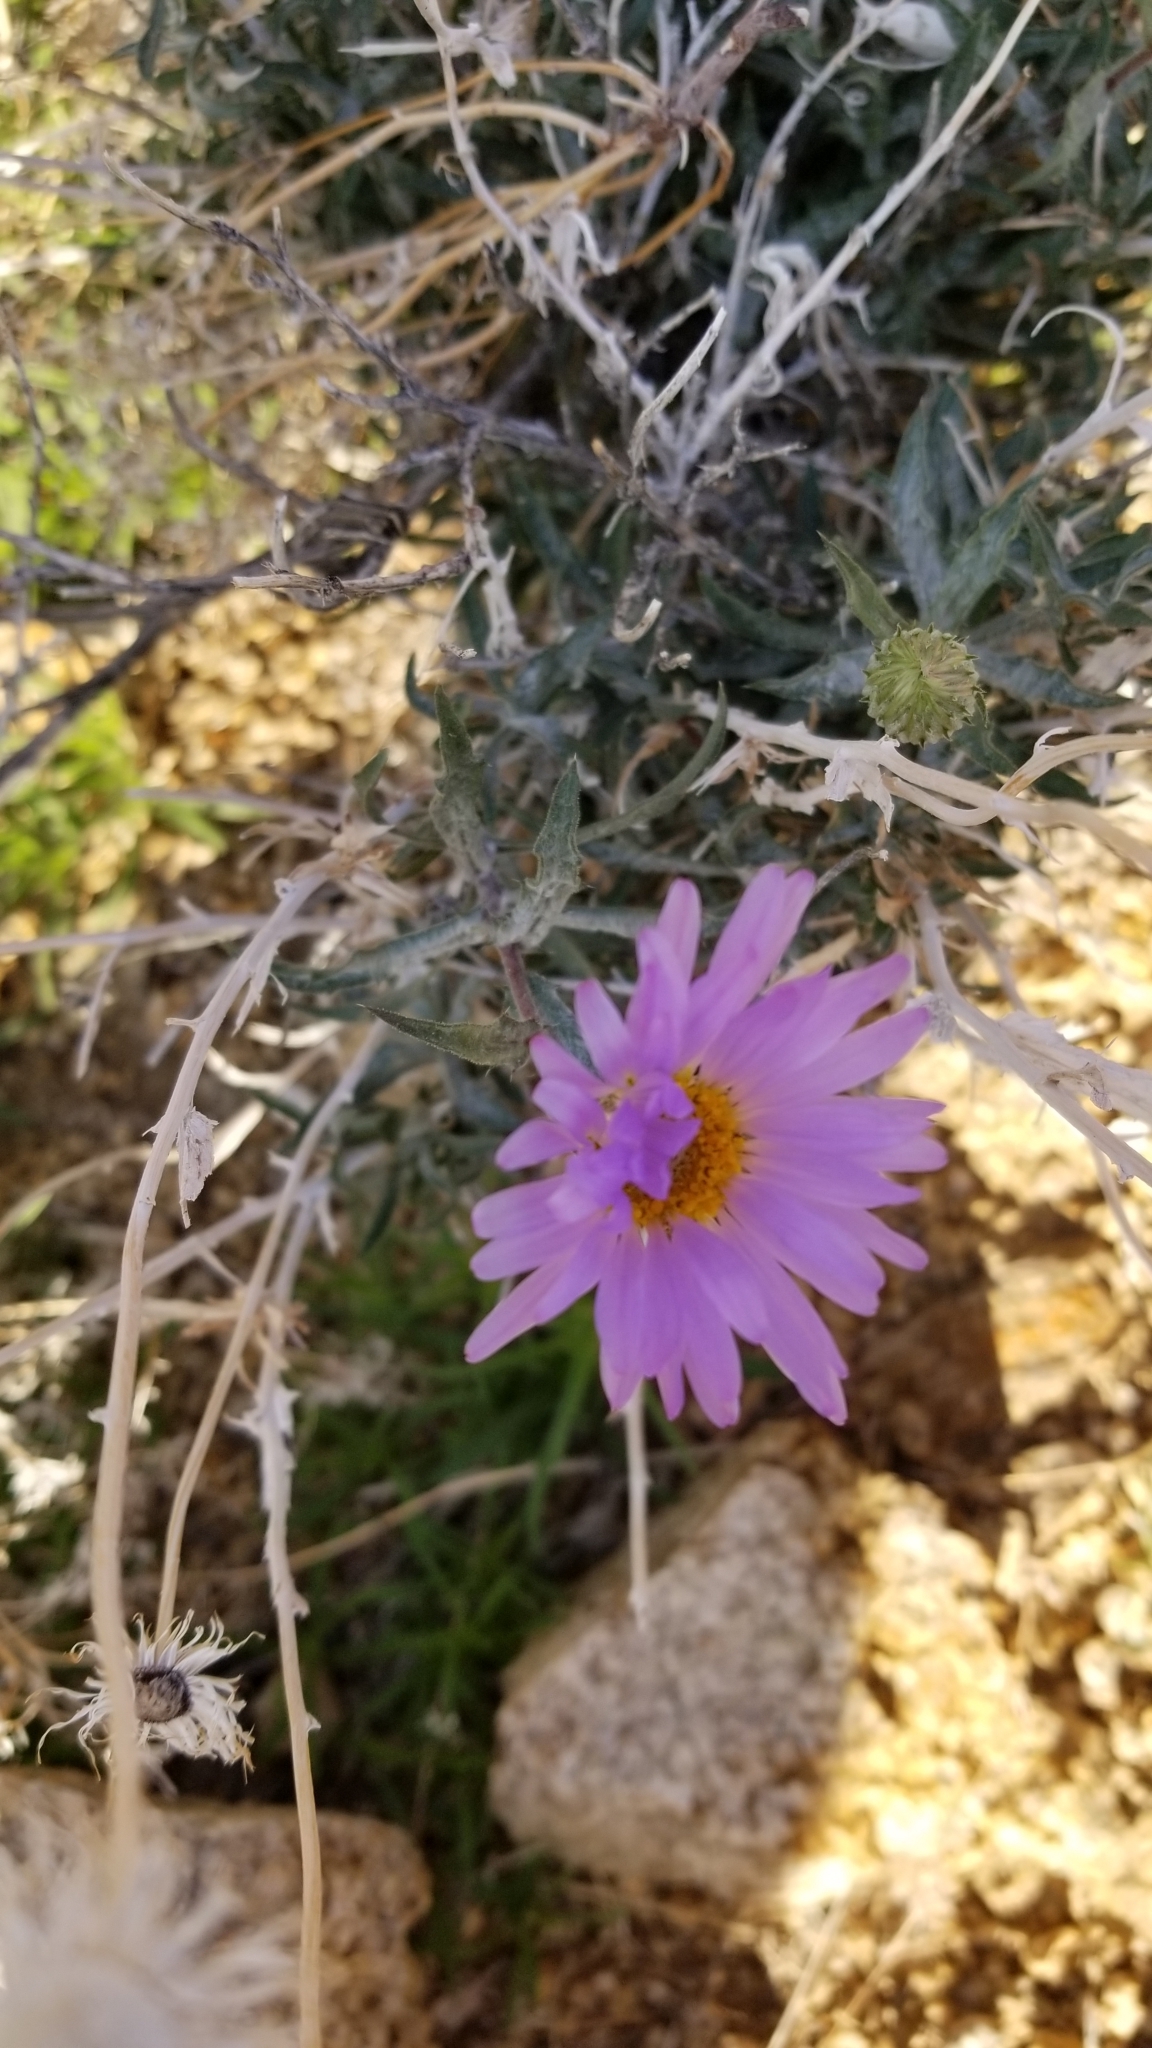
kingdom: Plantae
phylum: Tracheophyta
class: Magnoliopsida
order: Asterales
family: Asteraceae
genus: Xylorhiza
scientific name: Xylorhiza tortifolia
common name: Hurt-leaf woody-aster
